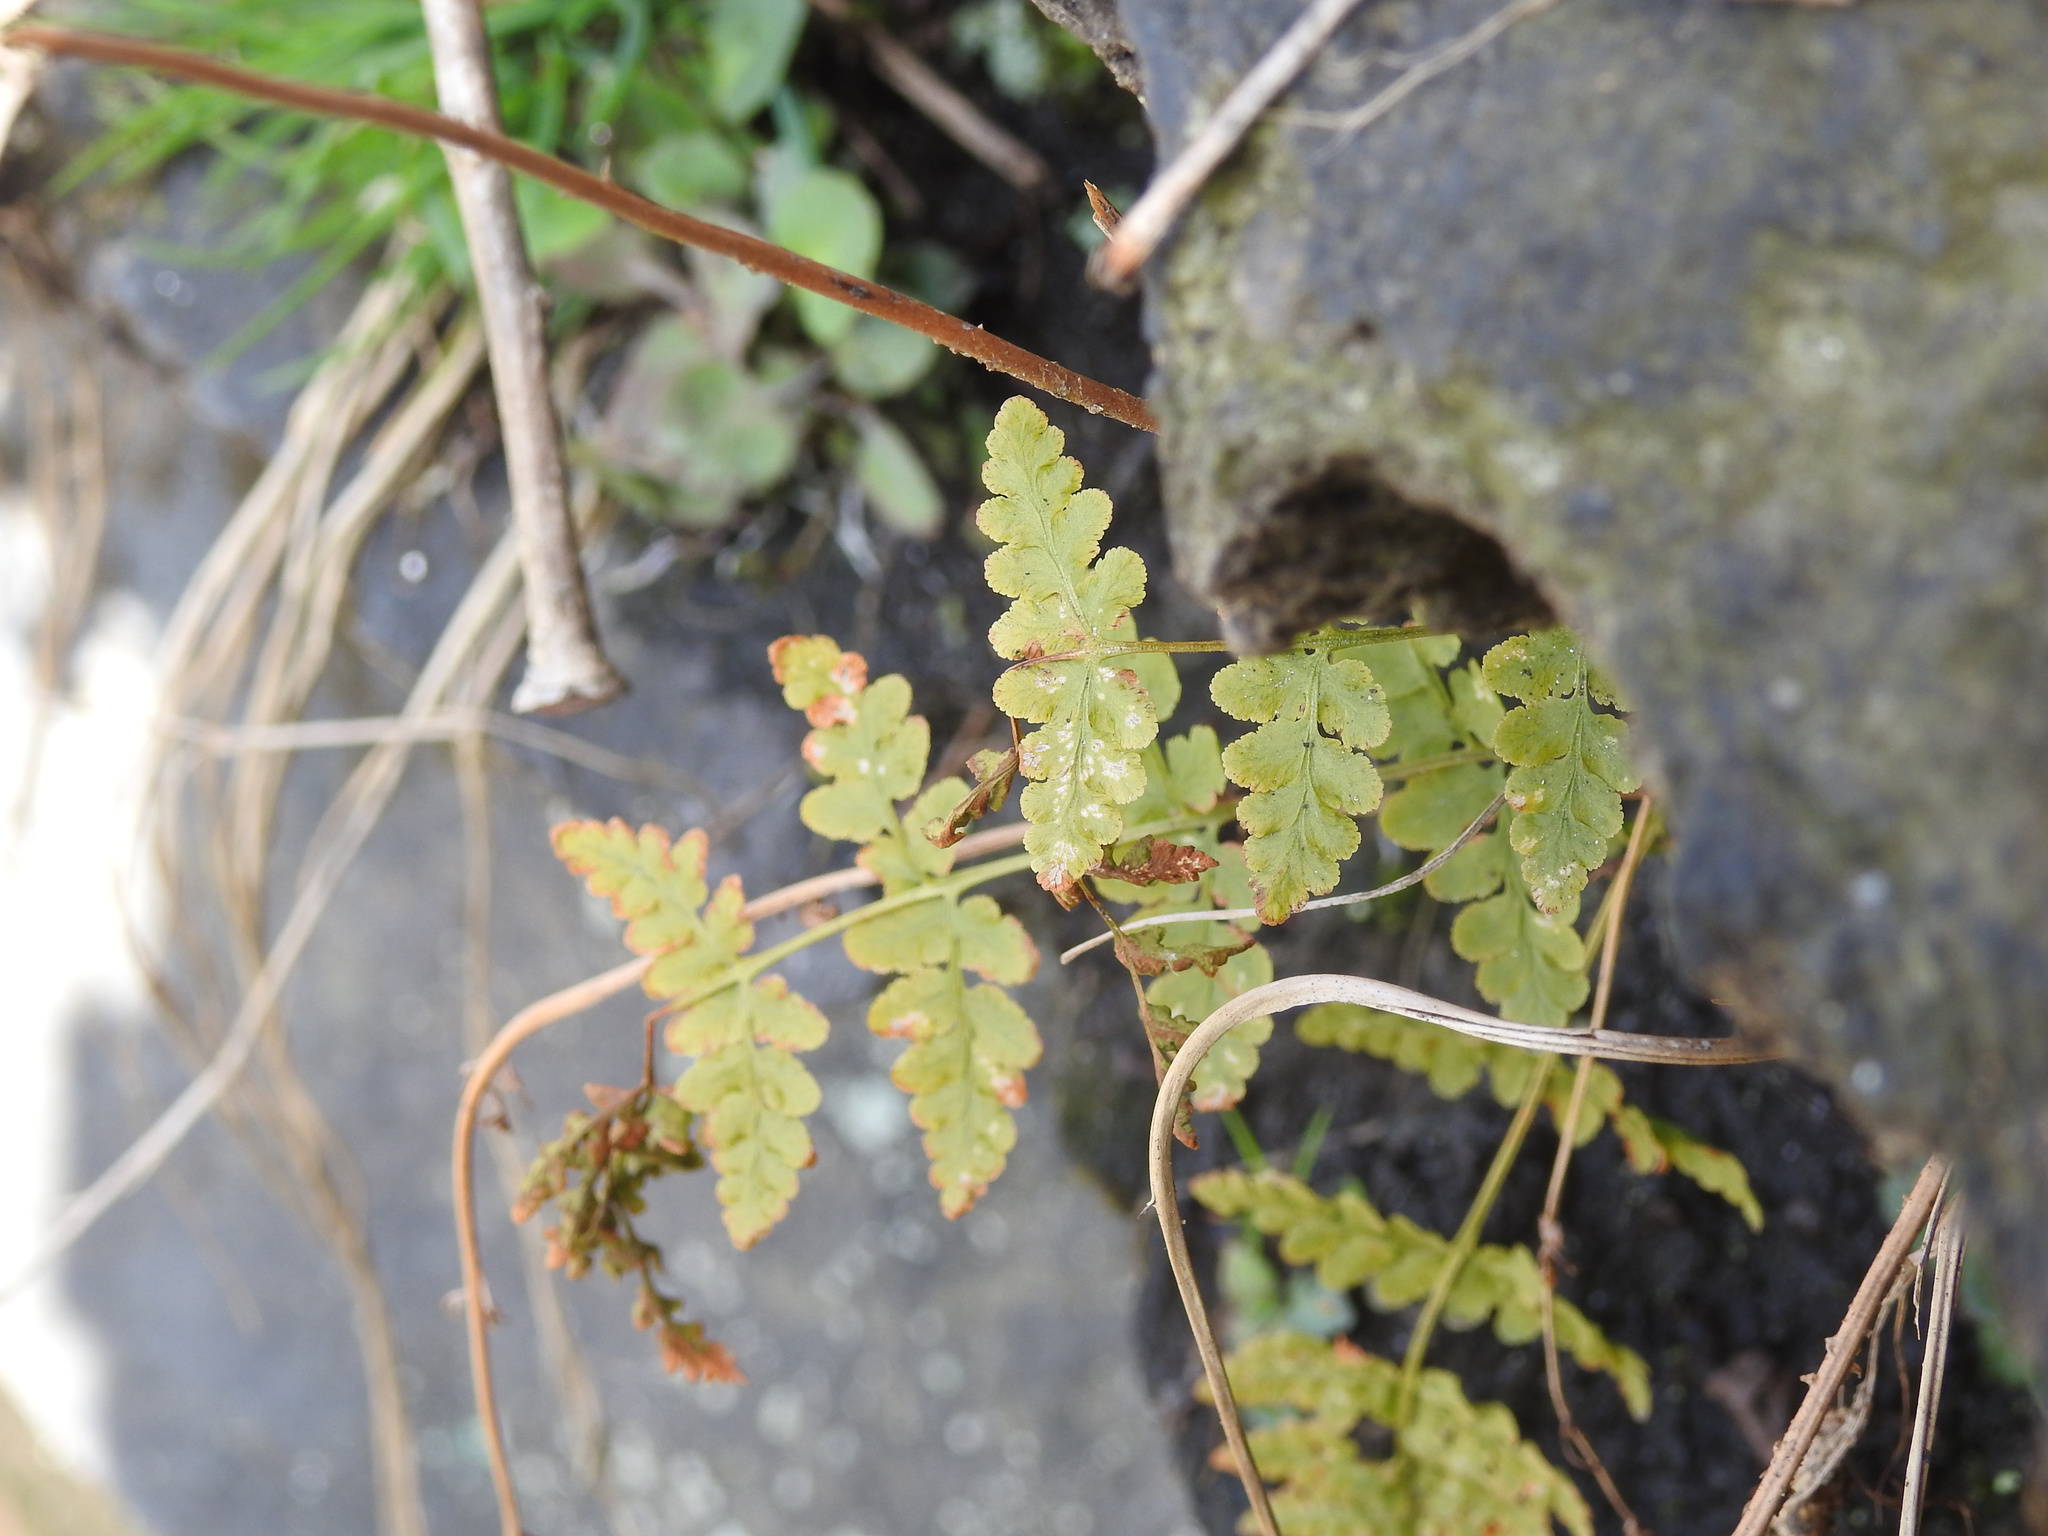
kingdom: Plantae
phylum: Tracheophyta
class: Polypodiopsida
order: Polypodiales
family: Woodsiaceae
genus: Physematium
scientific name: Physematium obtusum
